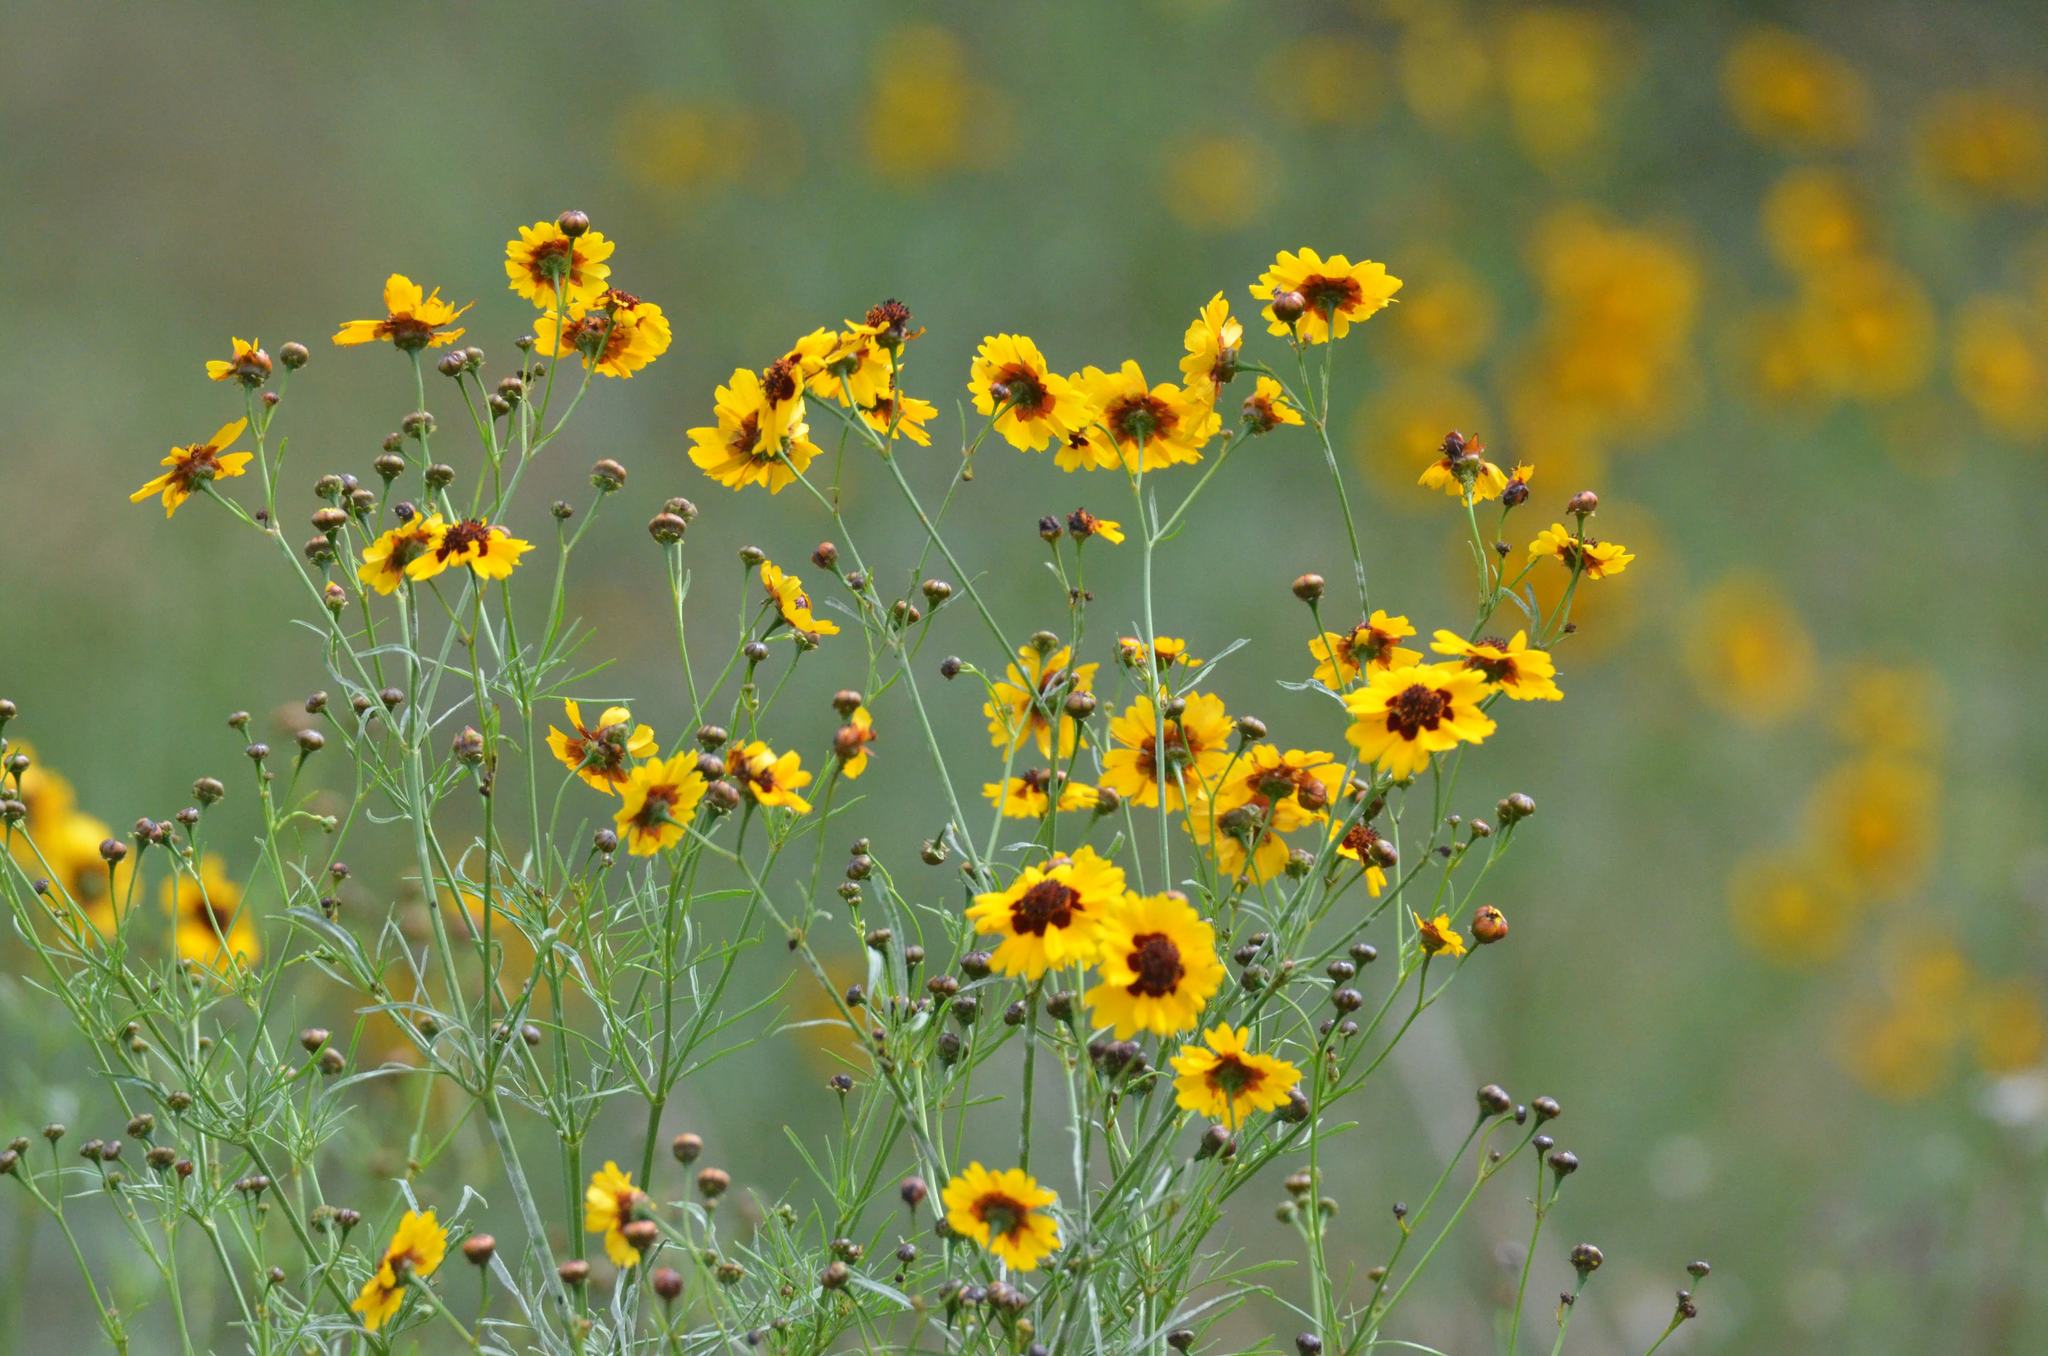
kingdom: Plantae
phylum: Tracheophyta
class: Magnoliopsida
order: Asterales
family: Asteraceae
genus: Coreopsis
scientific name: Coreopsis tinctoria
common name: Garden tickseed
